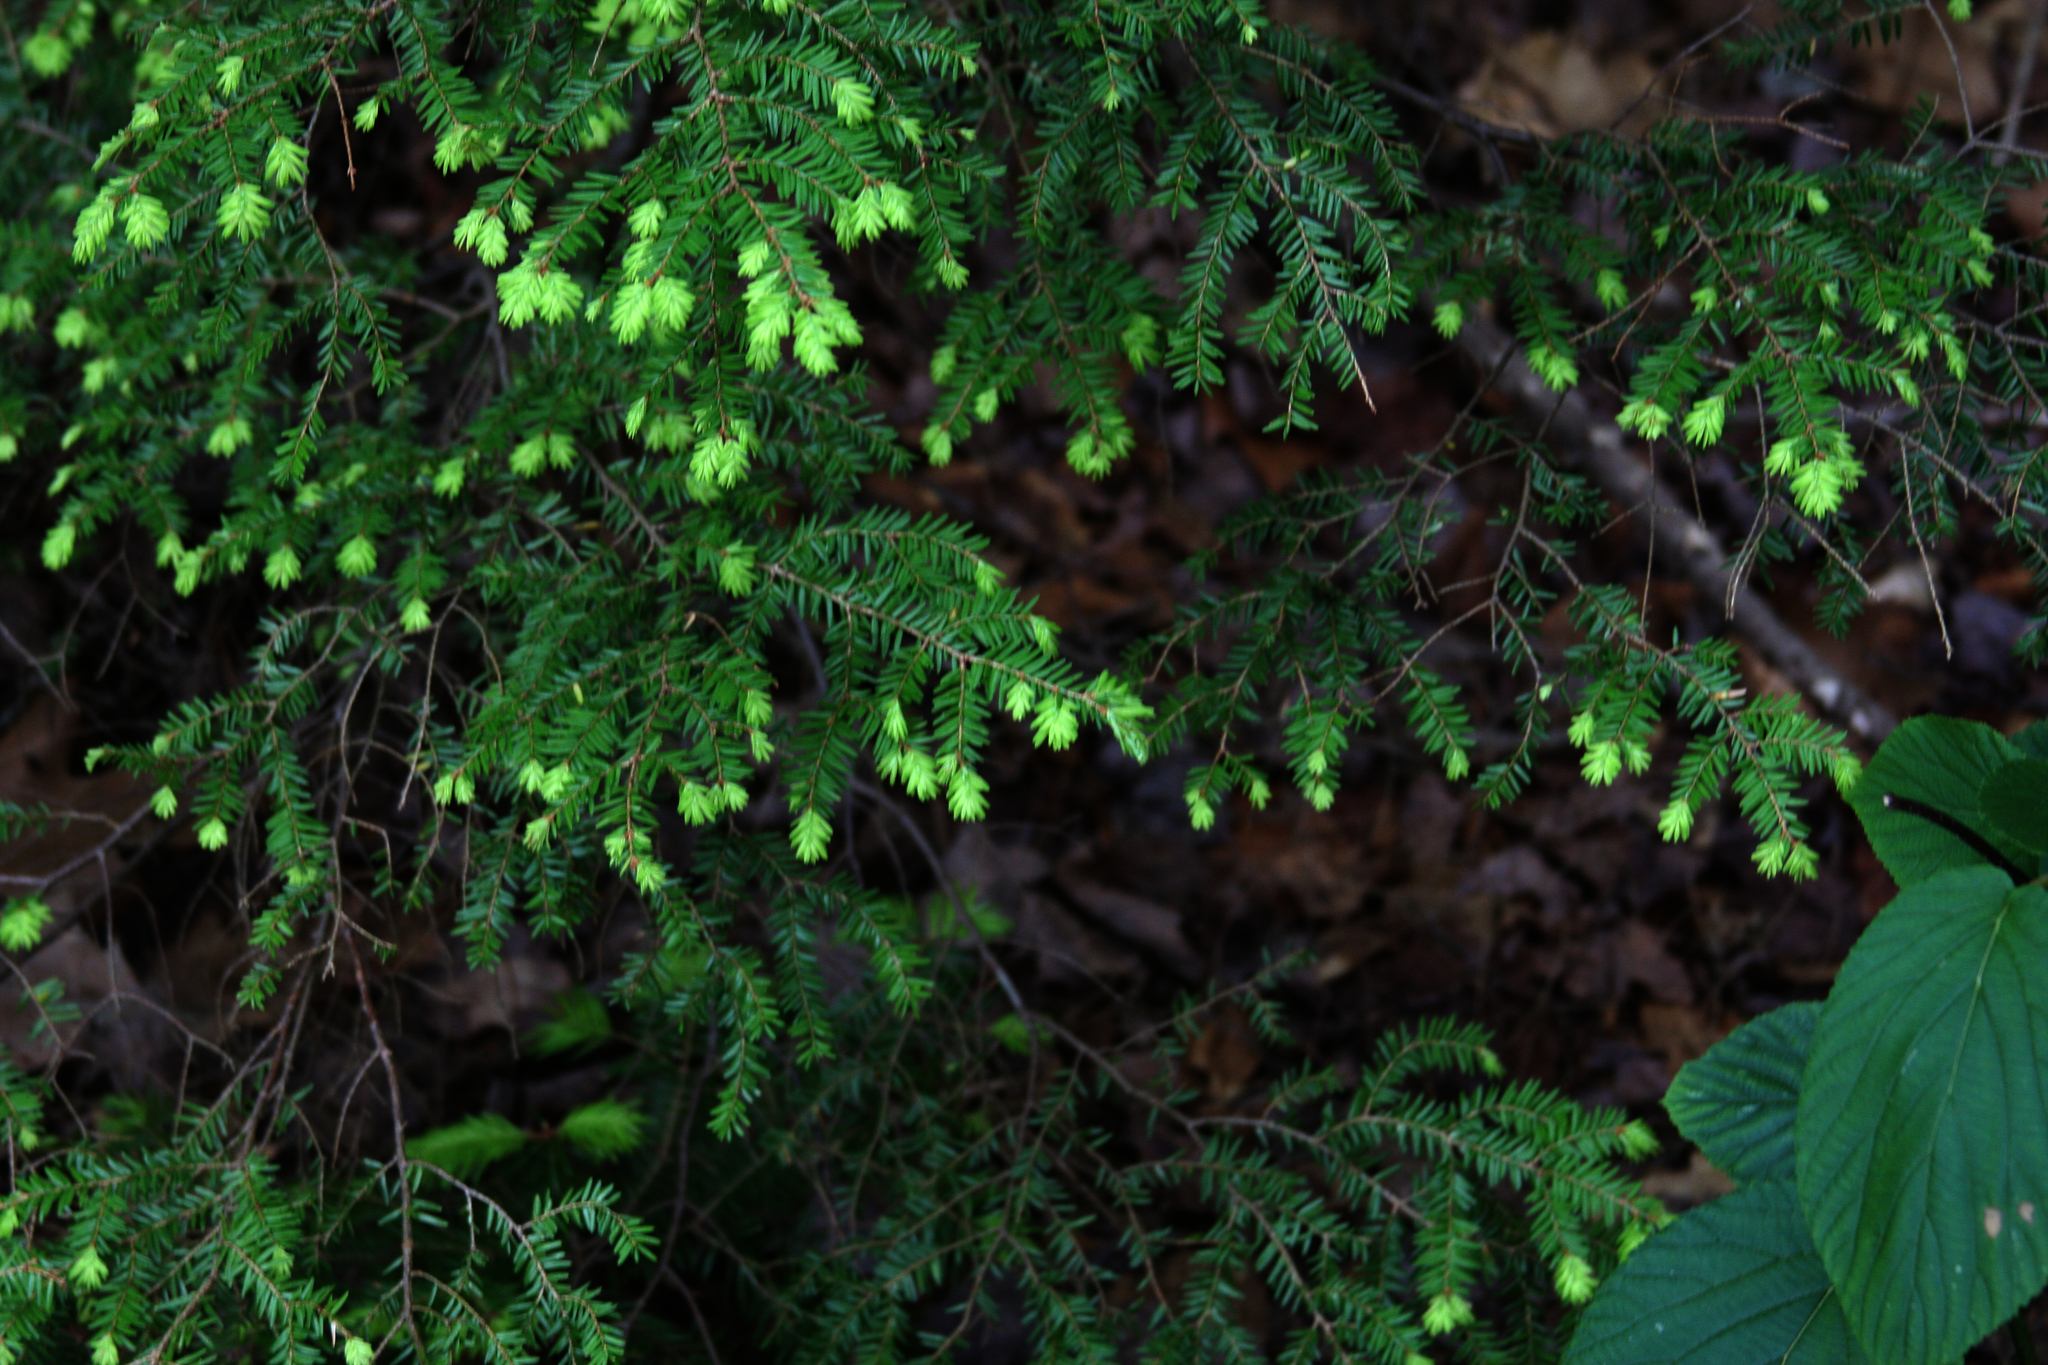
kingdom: Plantae
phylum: Tracheophyta
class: Pinopsida
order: Pinales
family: Pinaceae
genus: Tsuga
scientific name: Tsuga canadensis
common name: Eastern hemlock
